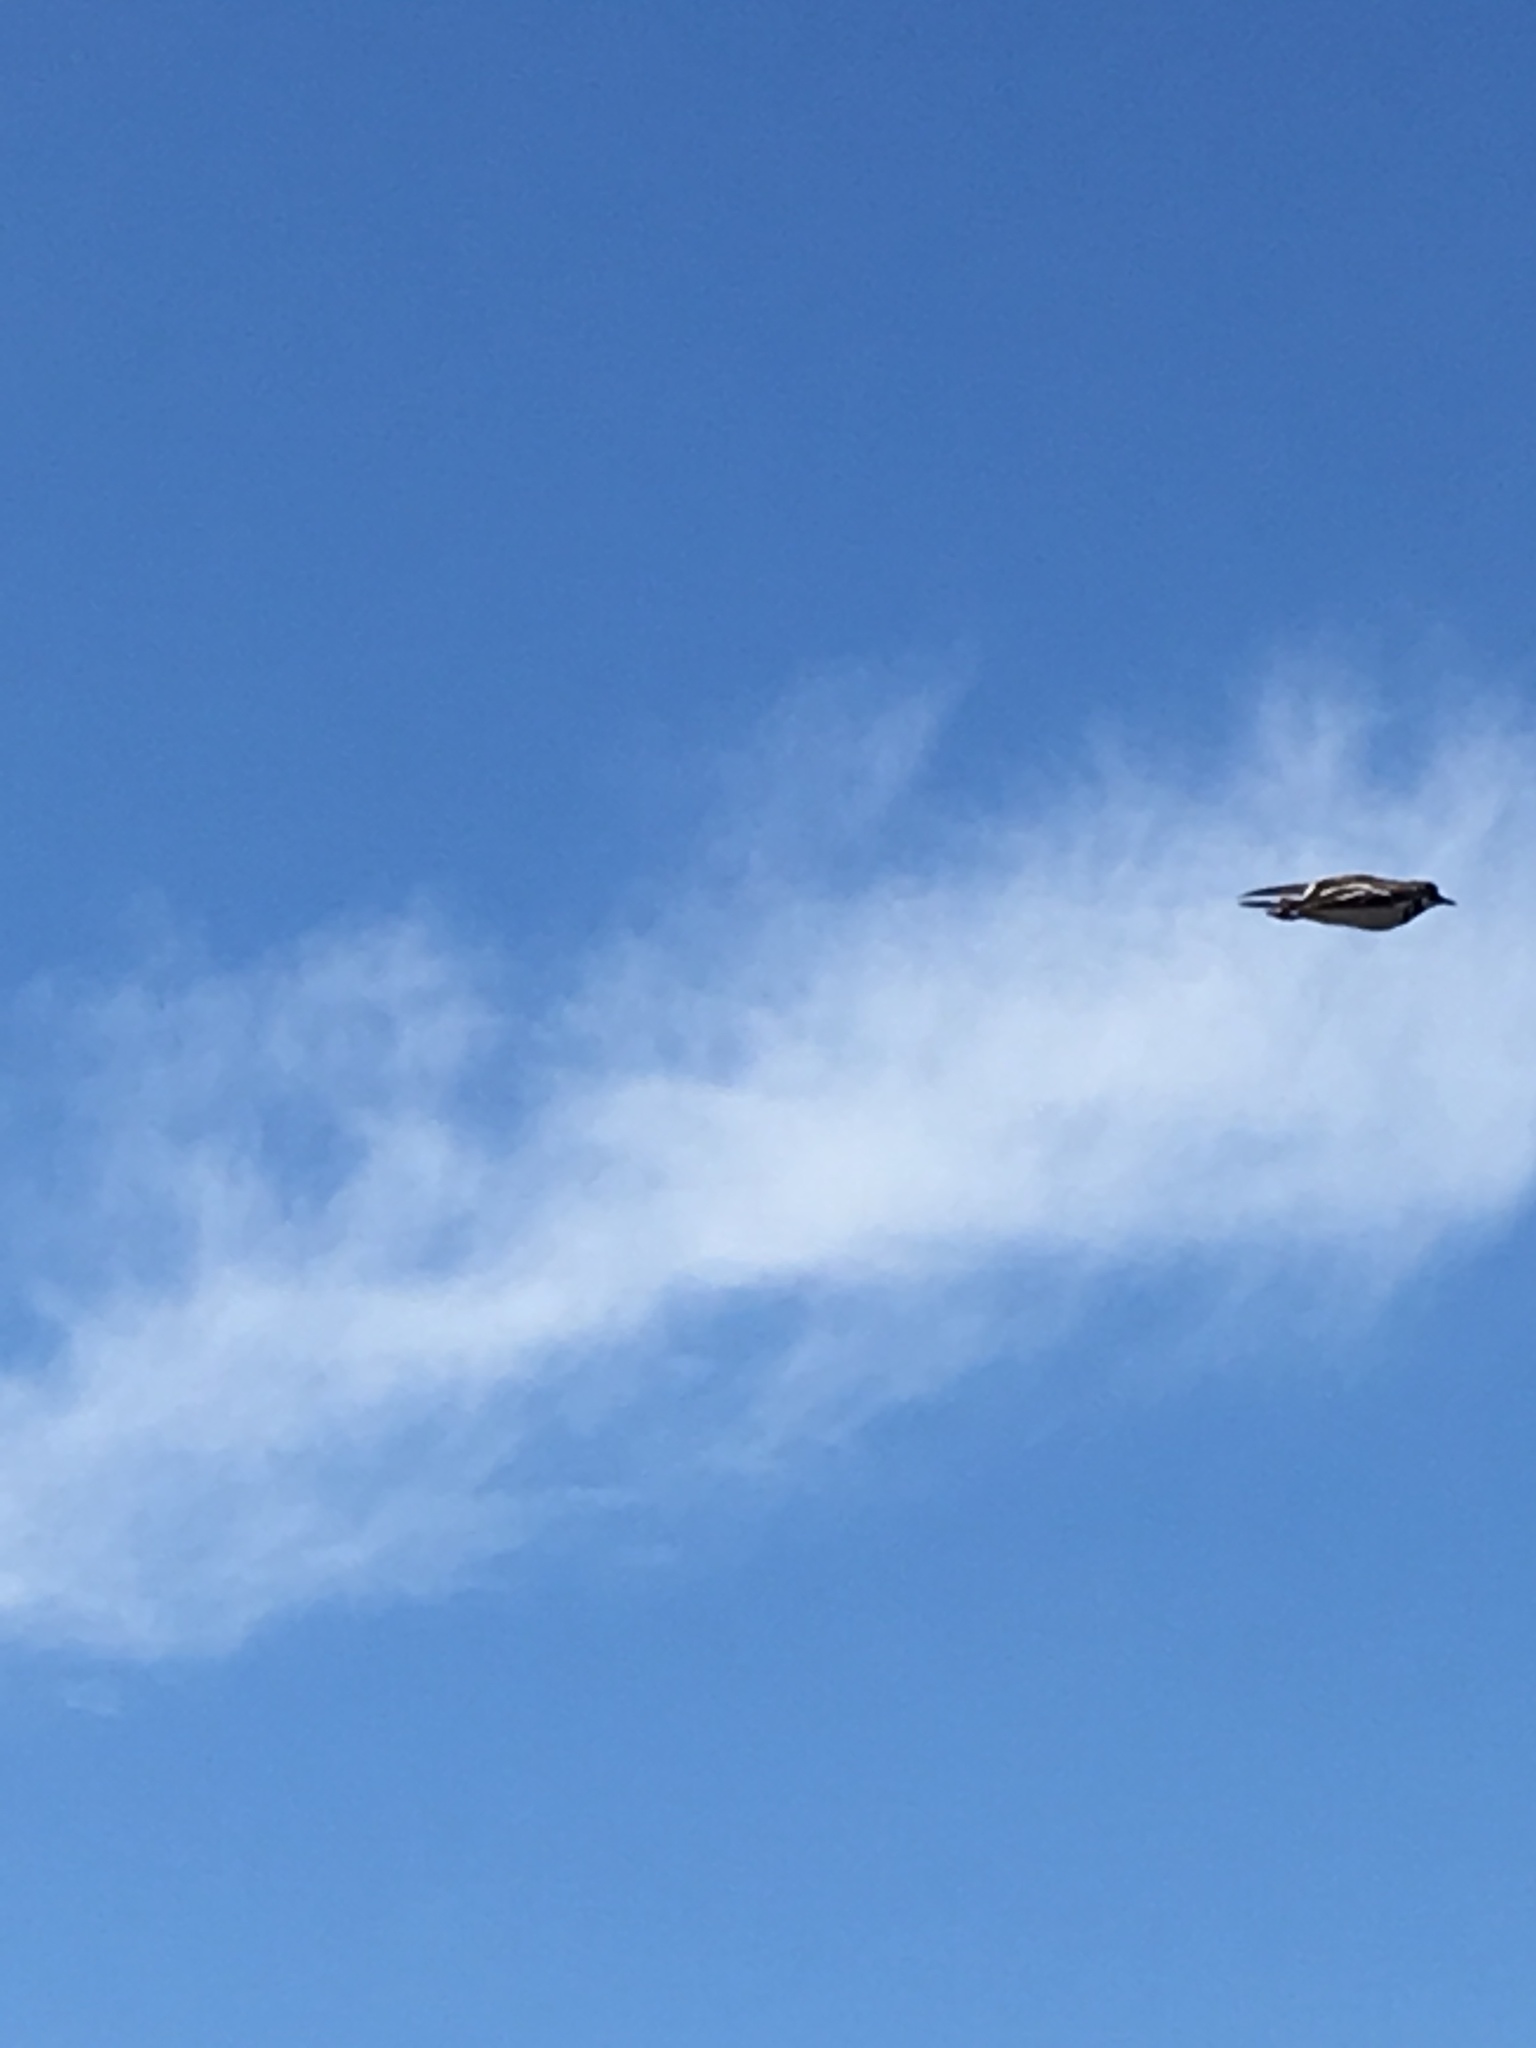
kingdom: Animalia
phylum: Chordata
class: Aves
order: Charadriiformes
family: Charadriidae
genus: Charadrius
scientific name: Charadrius vociferus
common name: Killdeer
